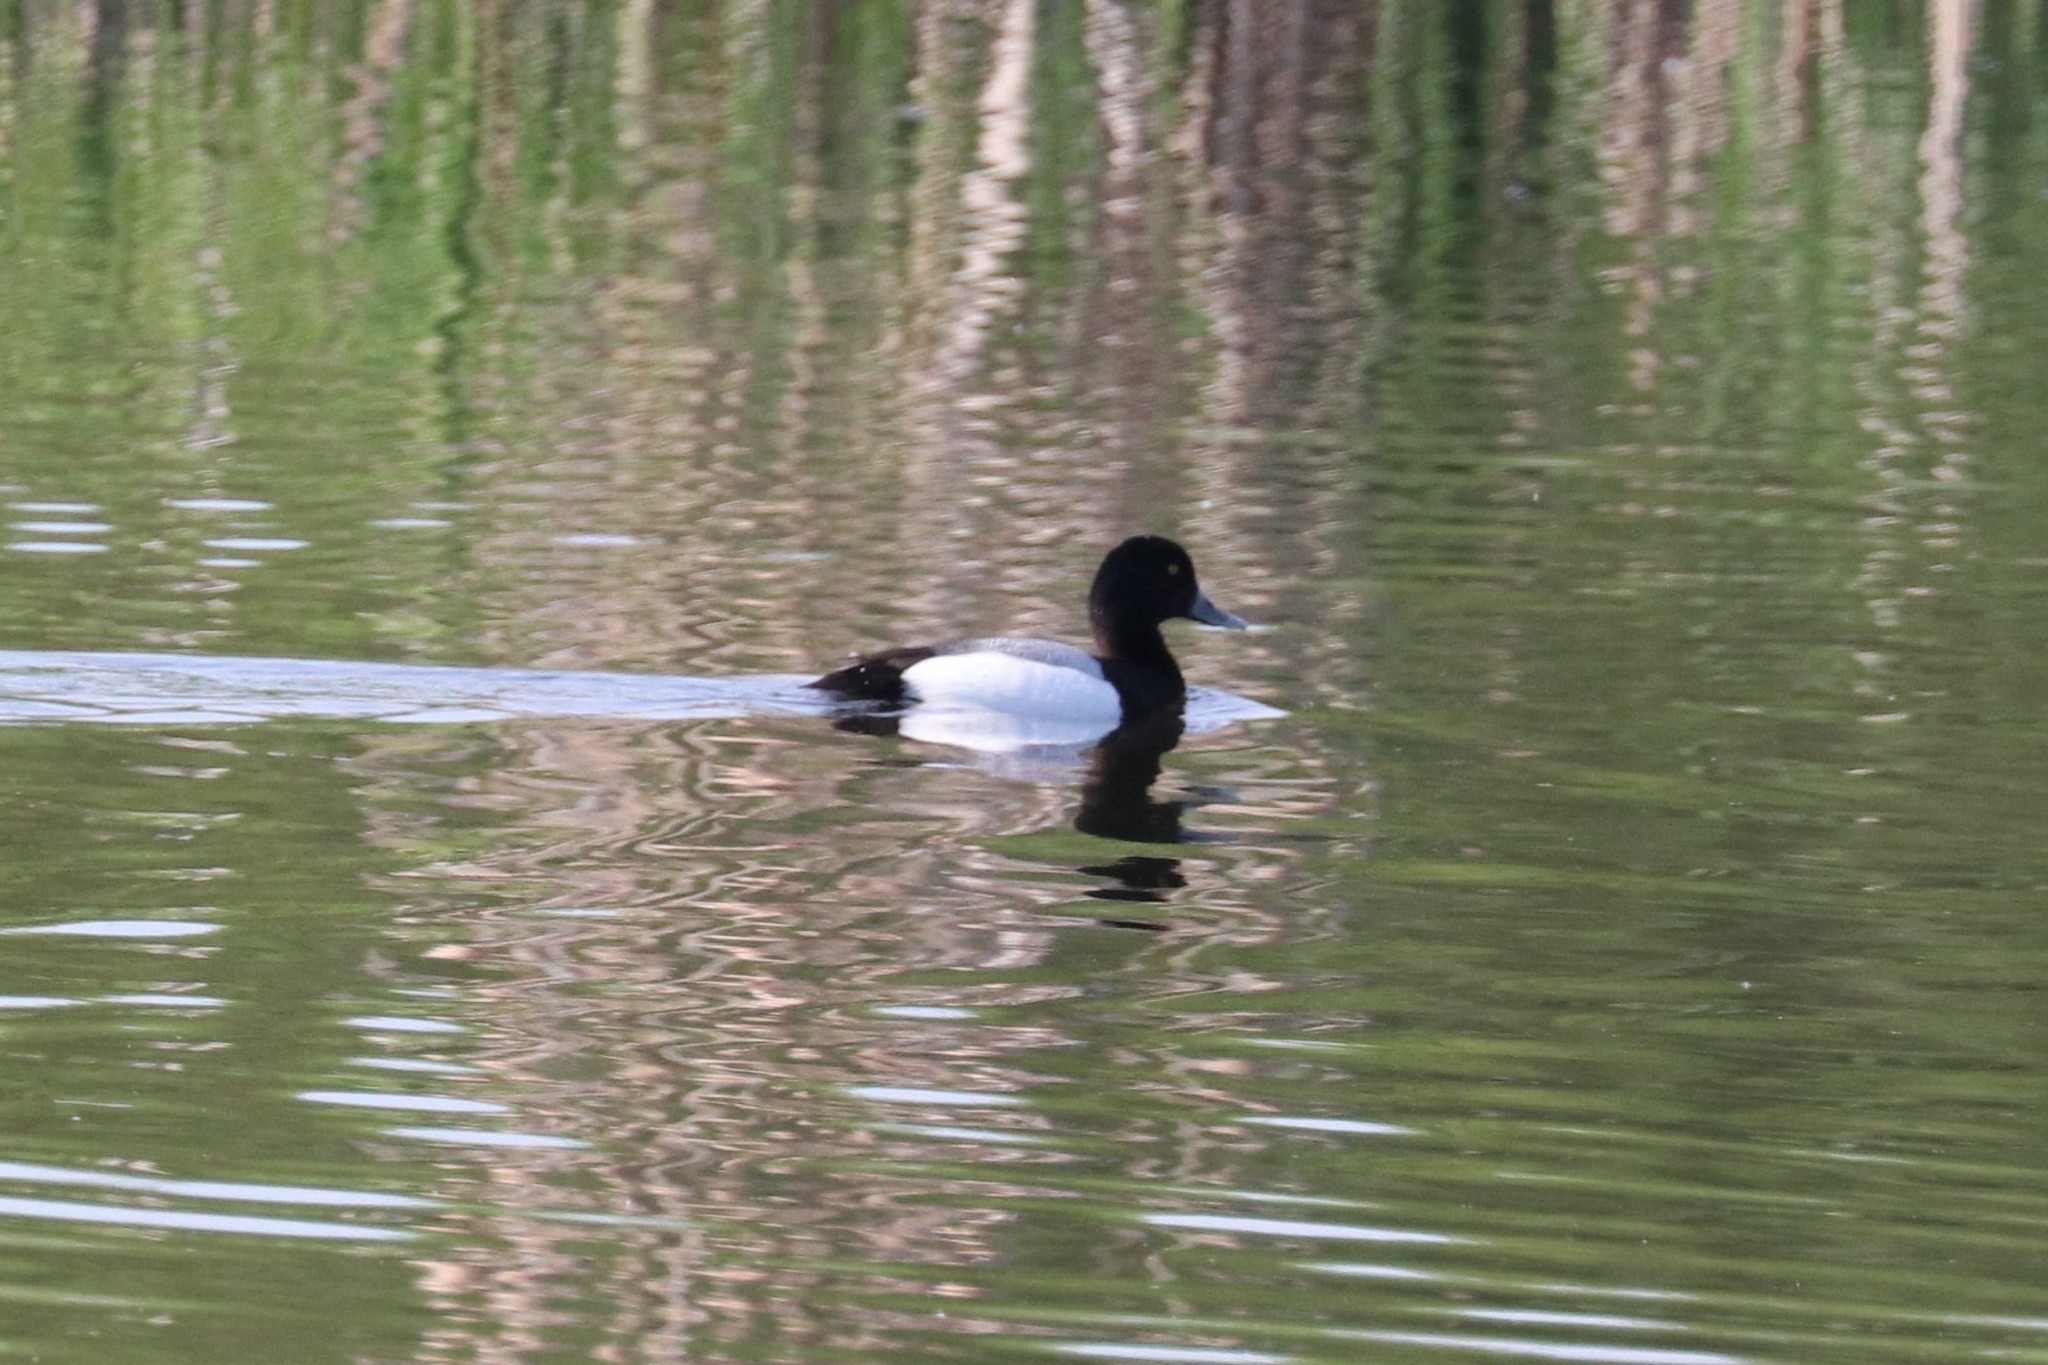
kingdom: Animalia
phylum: Chordata
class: Aves
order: Anseriformes
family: Anatidae
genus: Aythya
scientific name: Aythya marila
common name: Greater scaup
